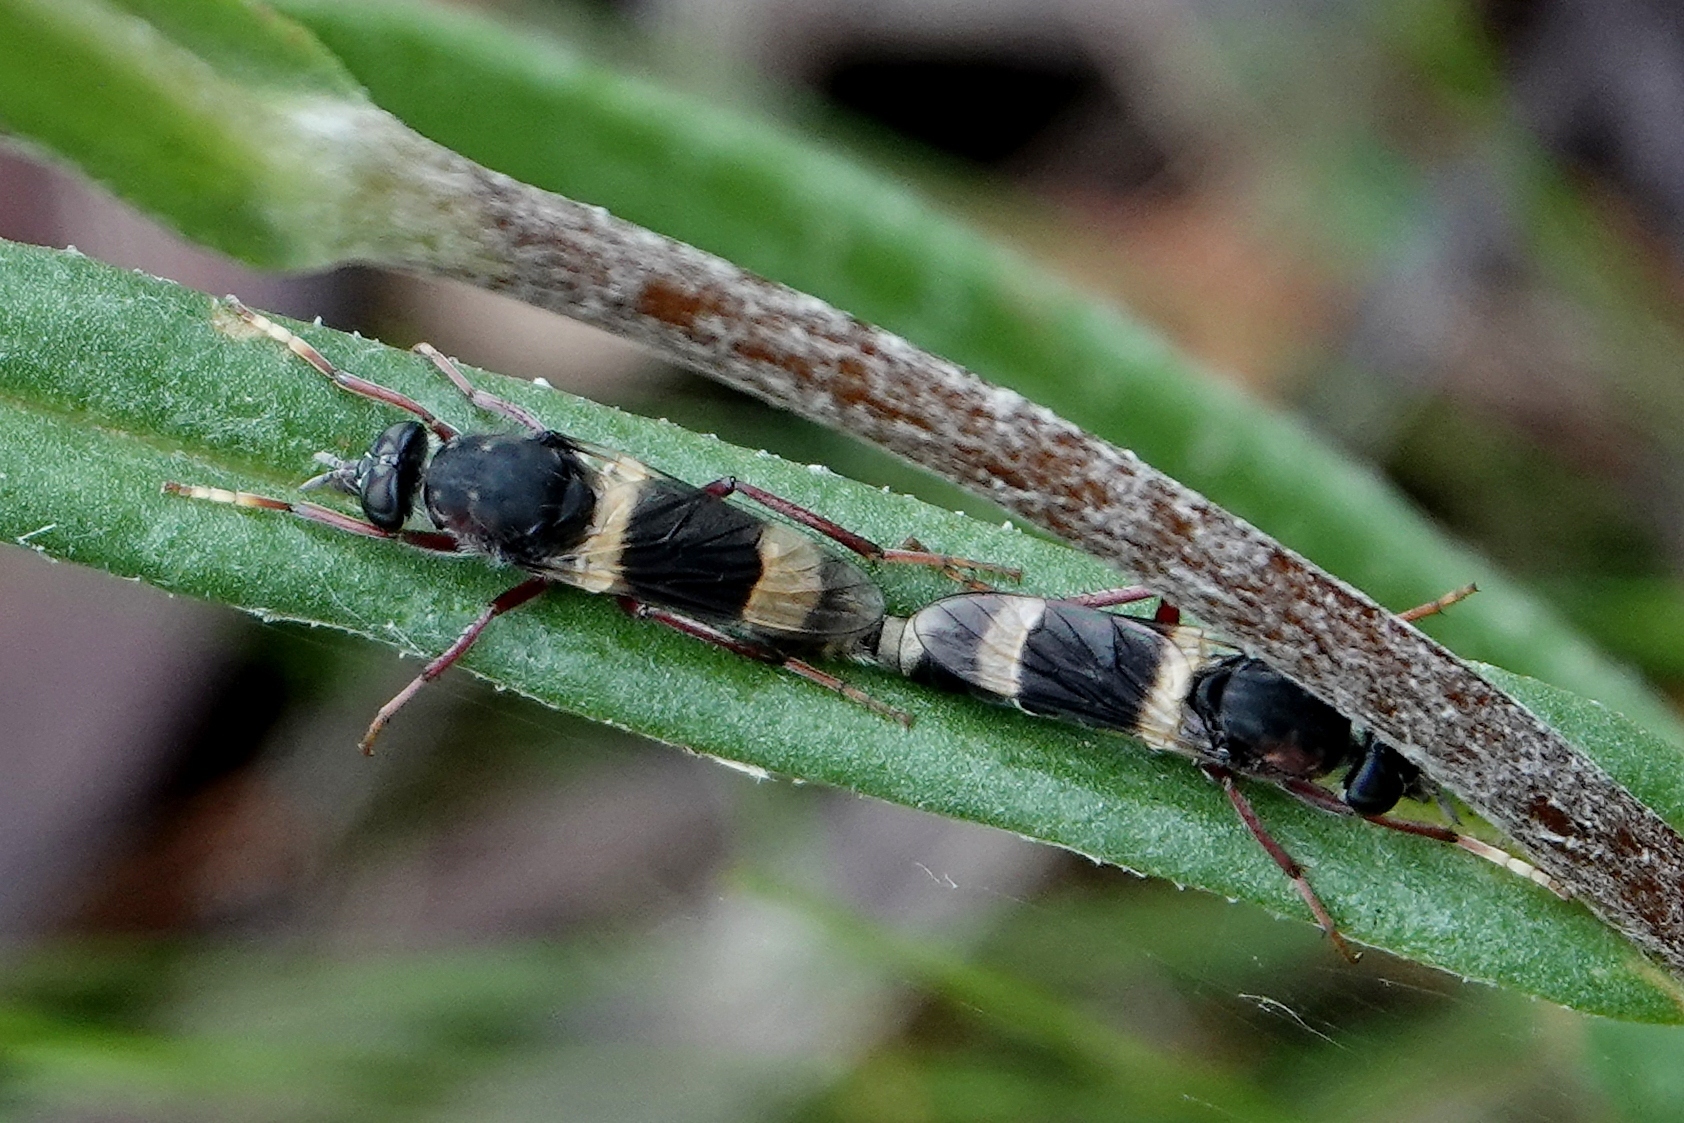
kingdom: Animalia
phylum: Arthropoda
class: Insecta
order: Diptera
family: Therevidae
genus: Pipinnipons
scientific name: Pipinnipons fascipennis
